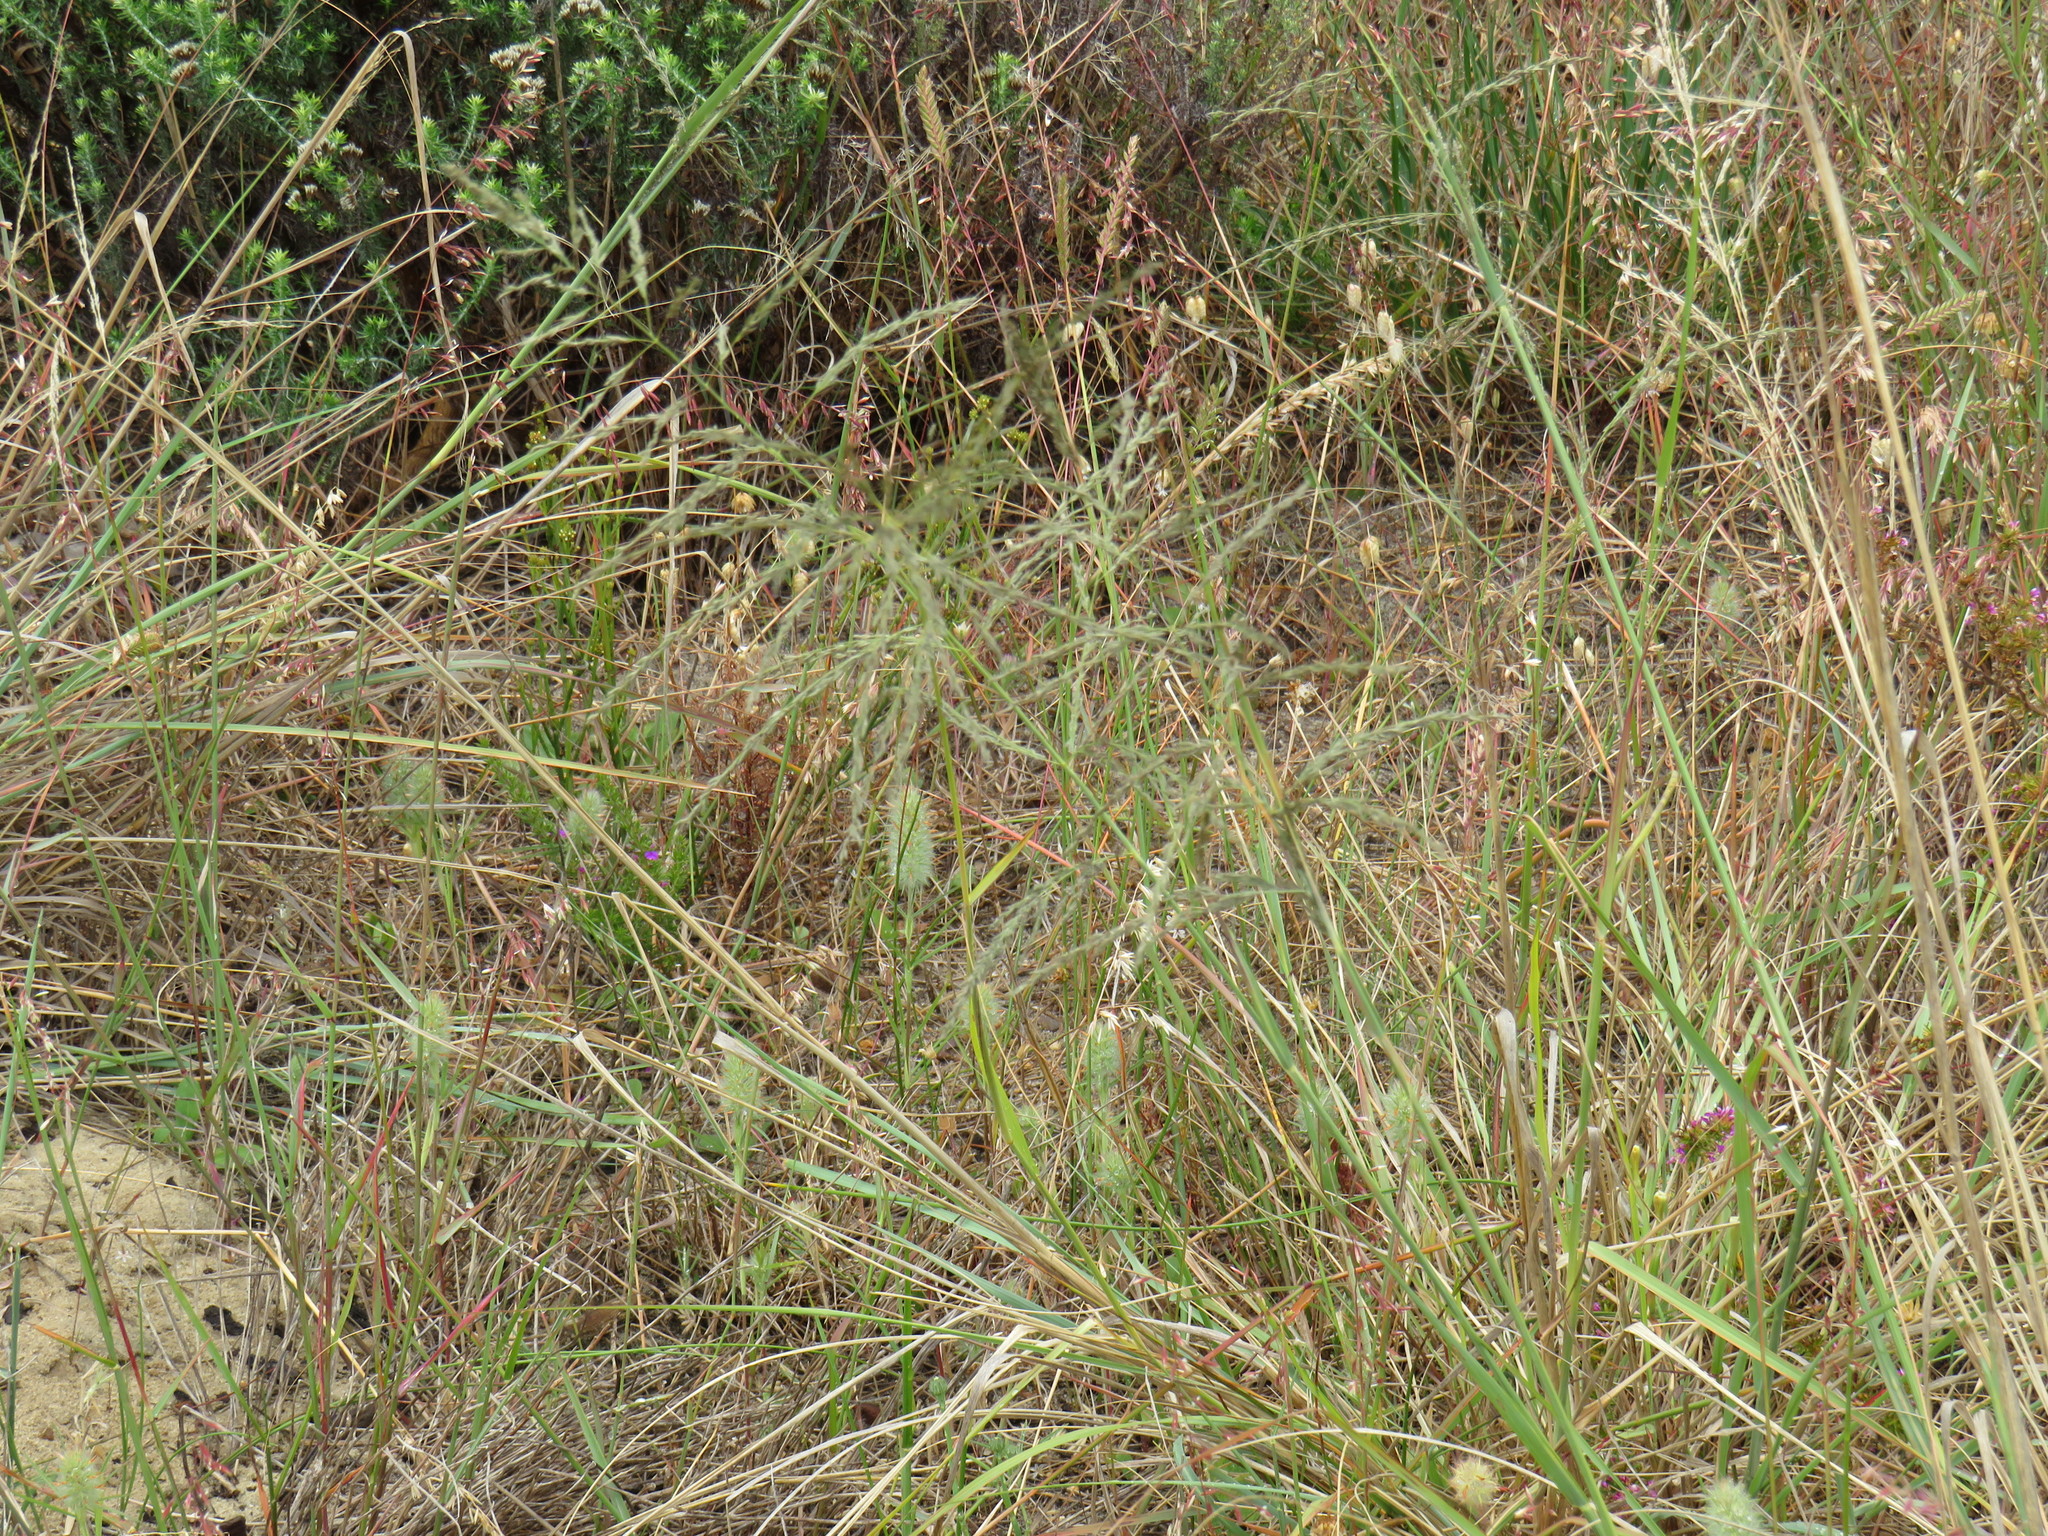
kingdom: Plantae
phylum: Tracheophyta
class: Liliopsida
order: Poales
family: Poaceae
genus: Eragrostis
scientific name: Eragrostis curvula
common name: African love-grass
